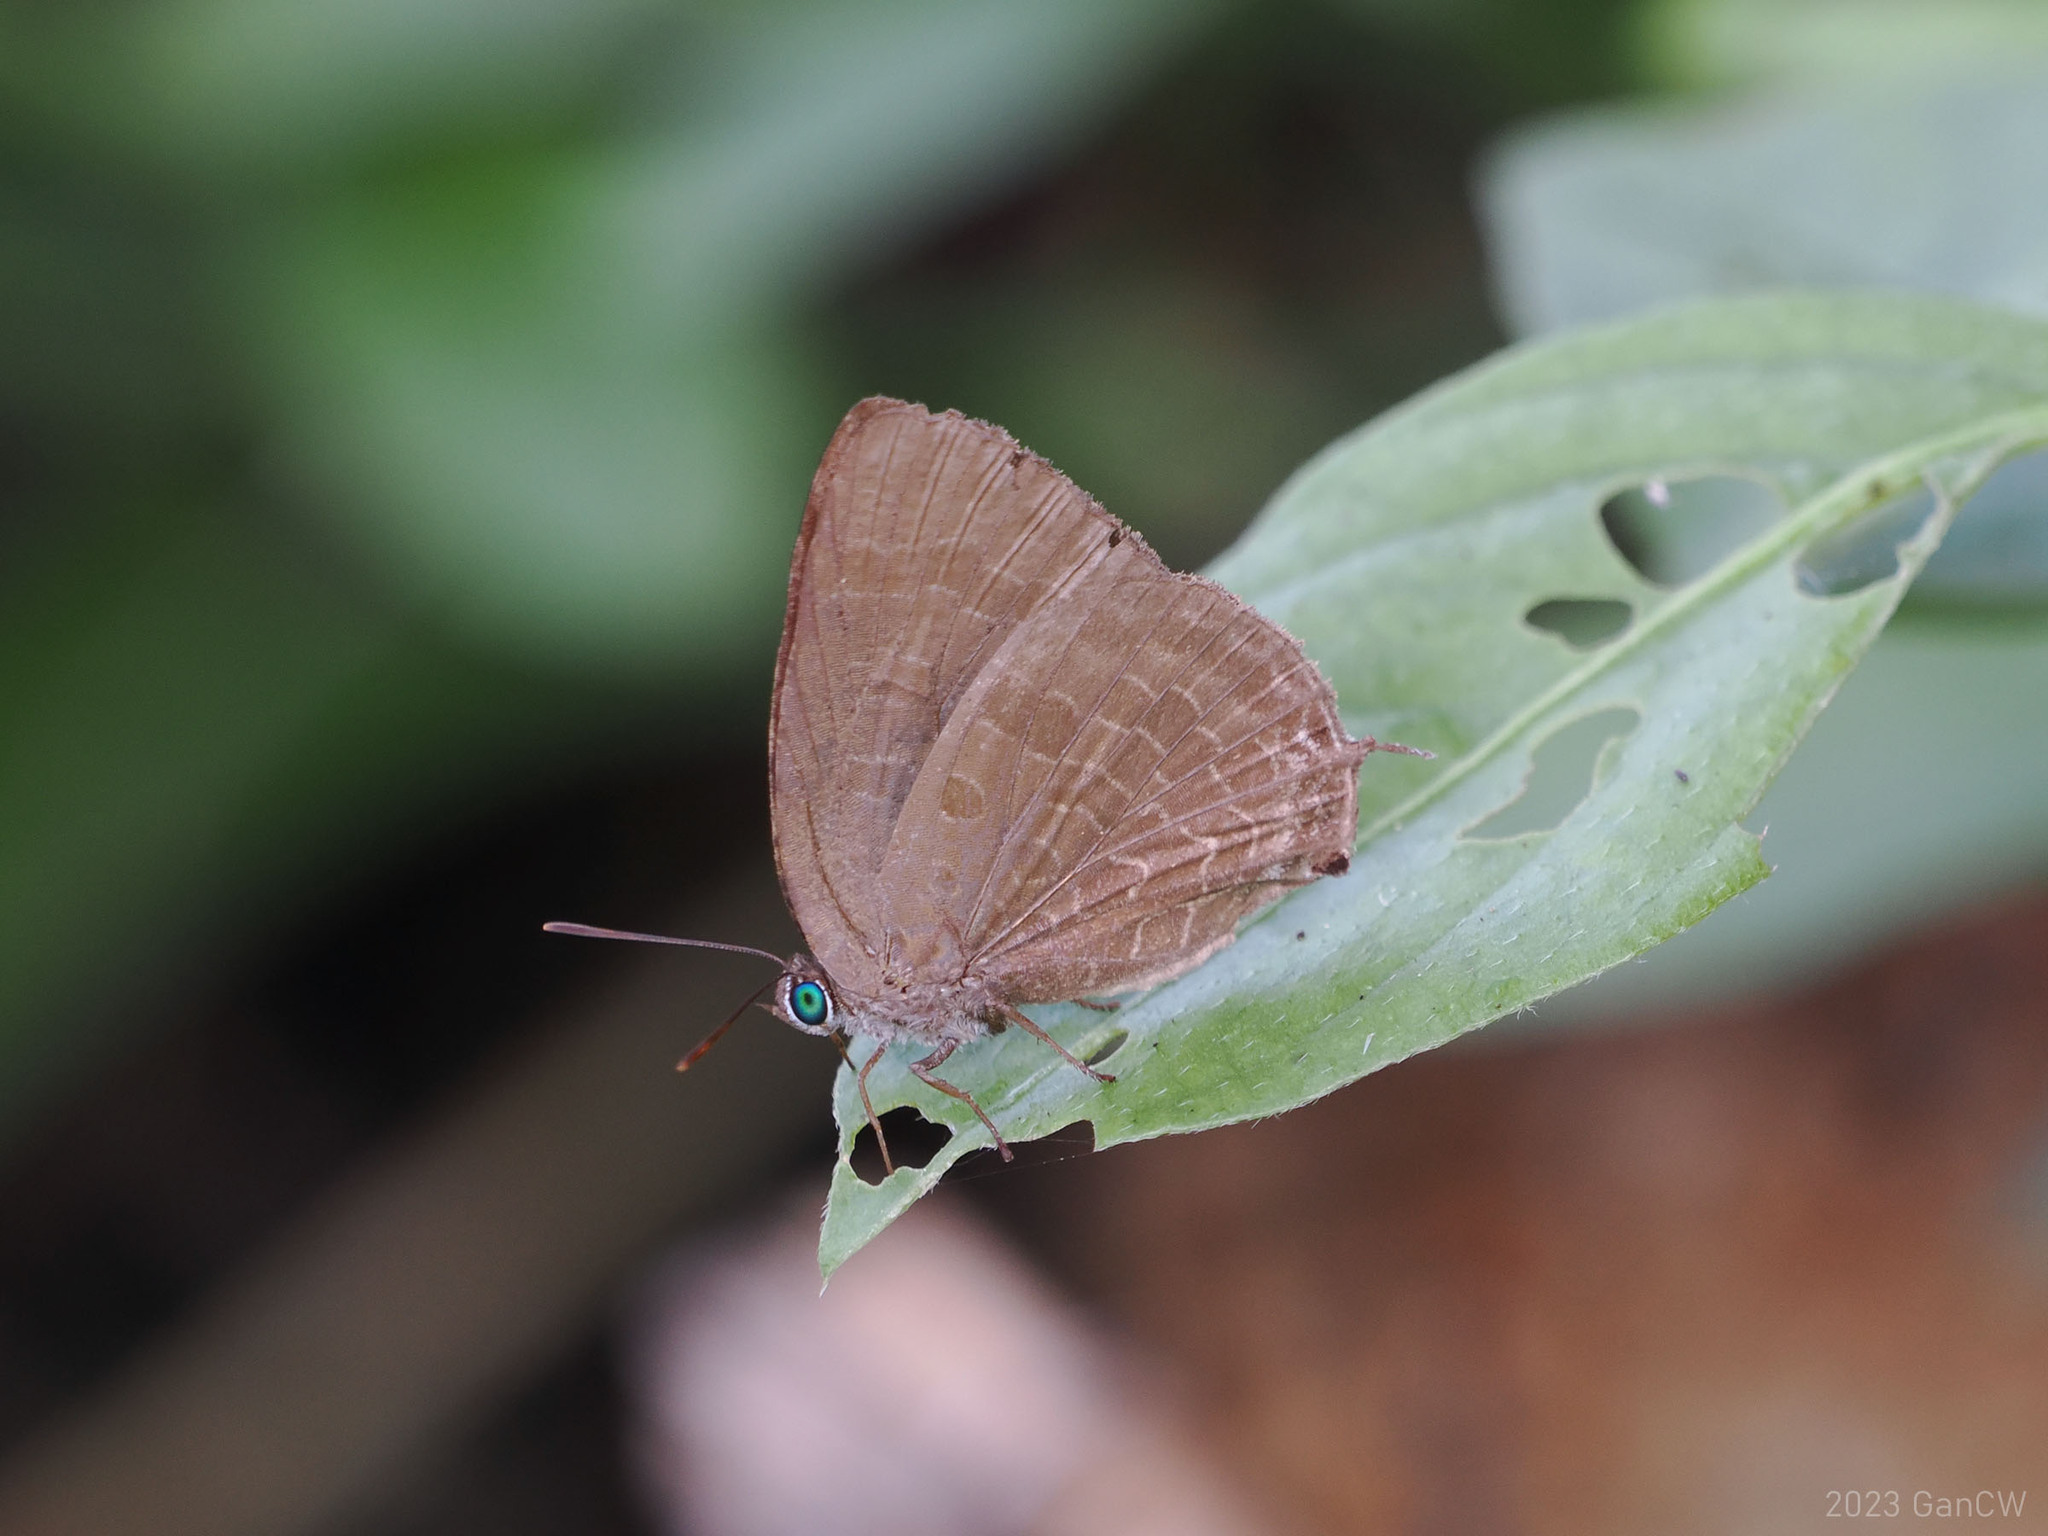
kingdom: Animalia
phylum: Arthropoda
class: Insecta
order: Lepidoptera
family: Lycaenidae
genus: Arhopala
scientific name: Arhopala phaenops
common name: Sumatran oakblue
